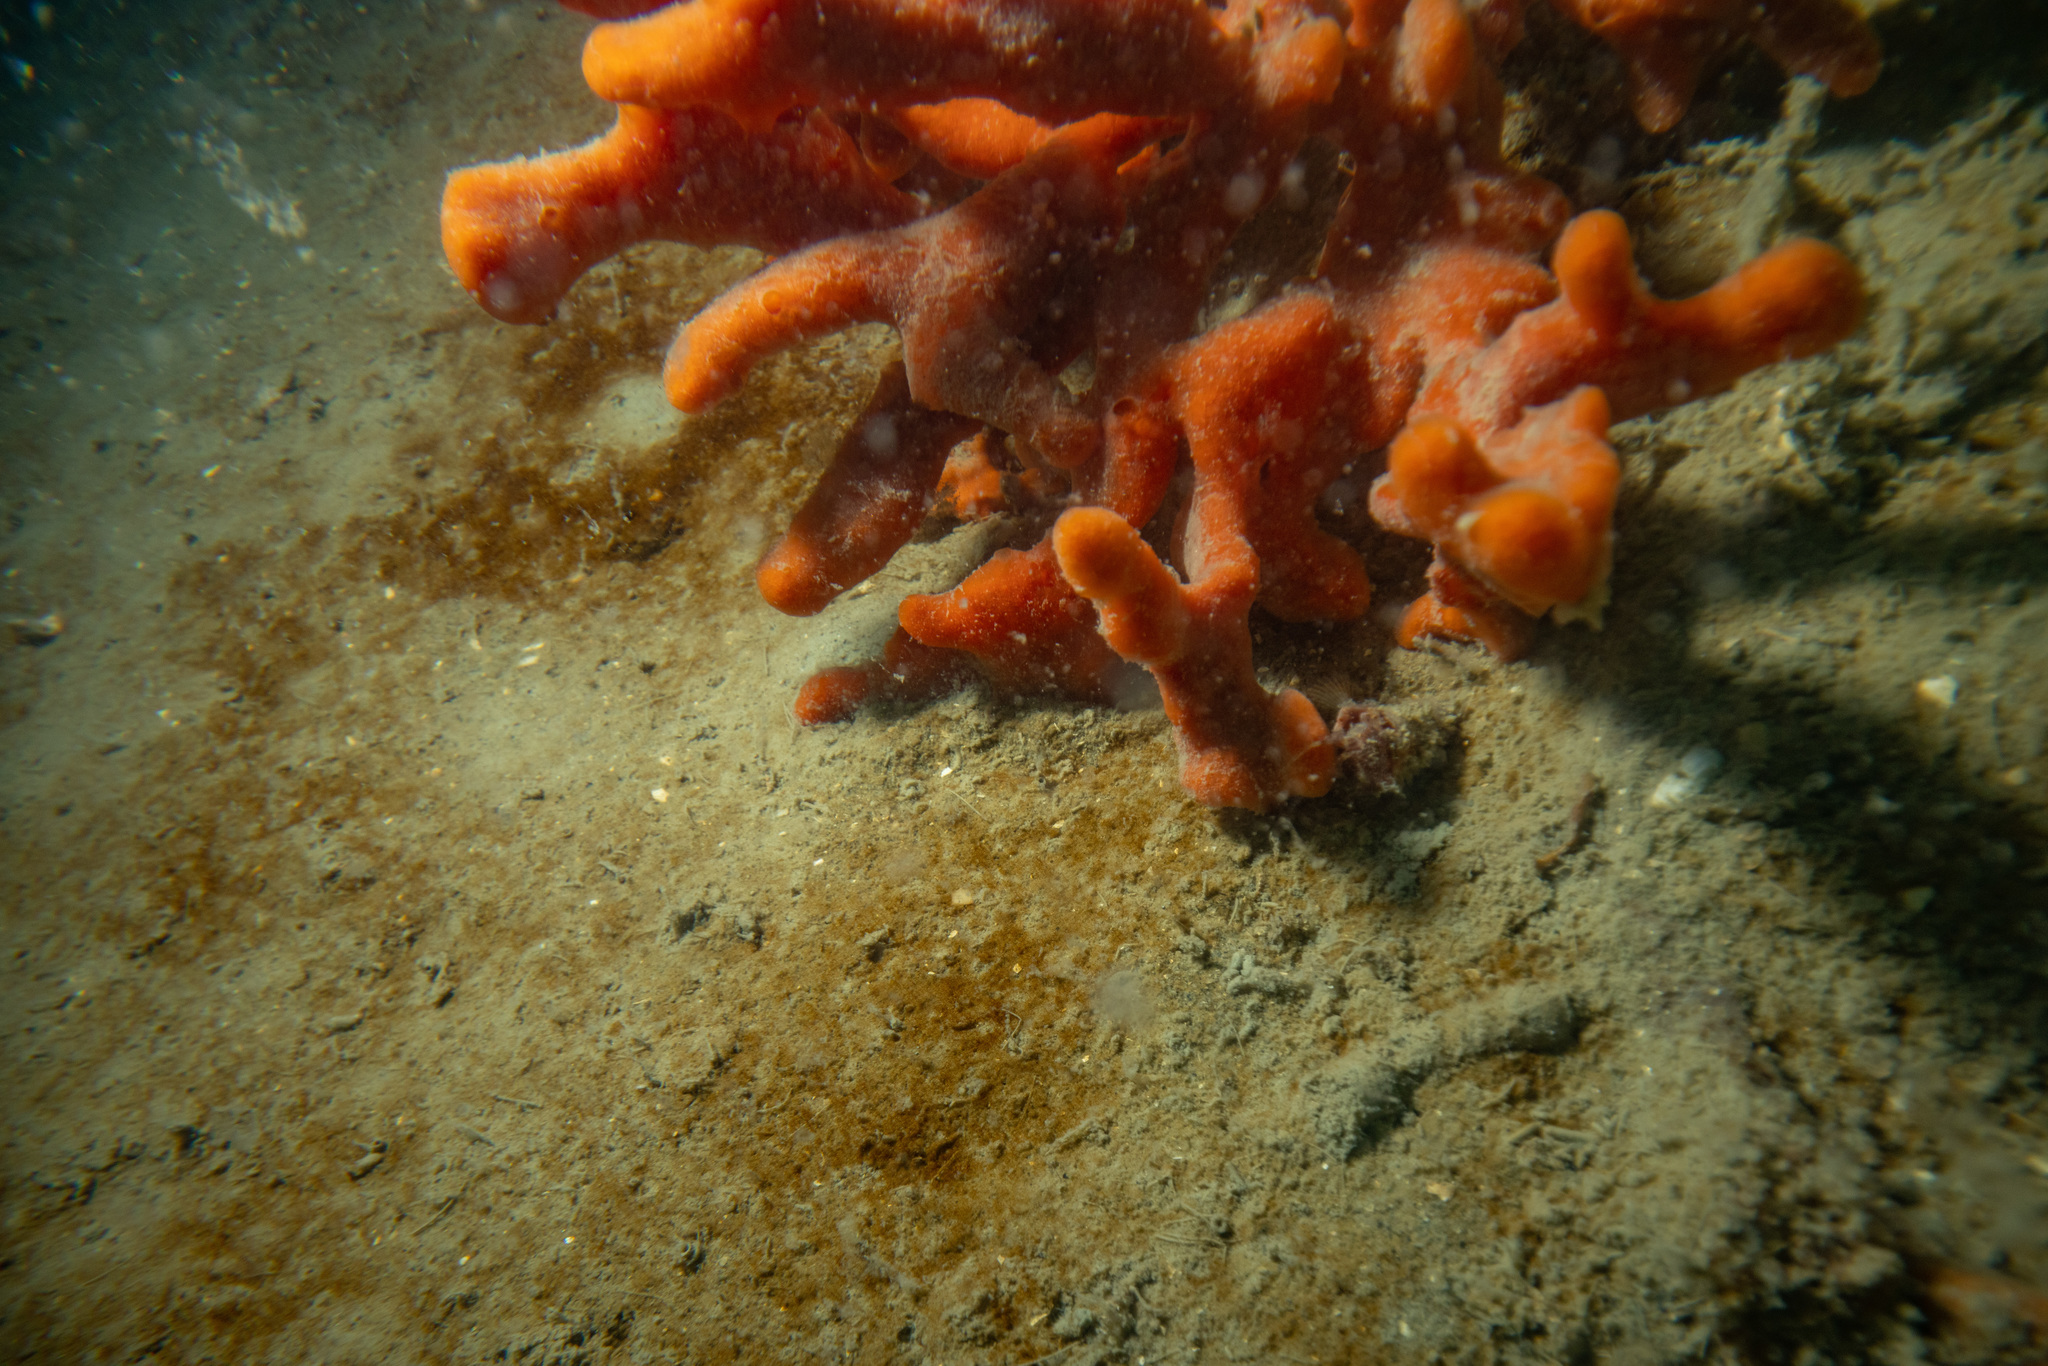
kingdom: Animalia
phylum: Porifera
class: Demospongiae
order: Poecilosclerida
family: Crellidae
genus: Crella
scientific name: Crella incrustans
